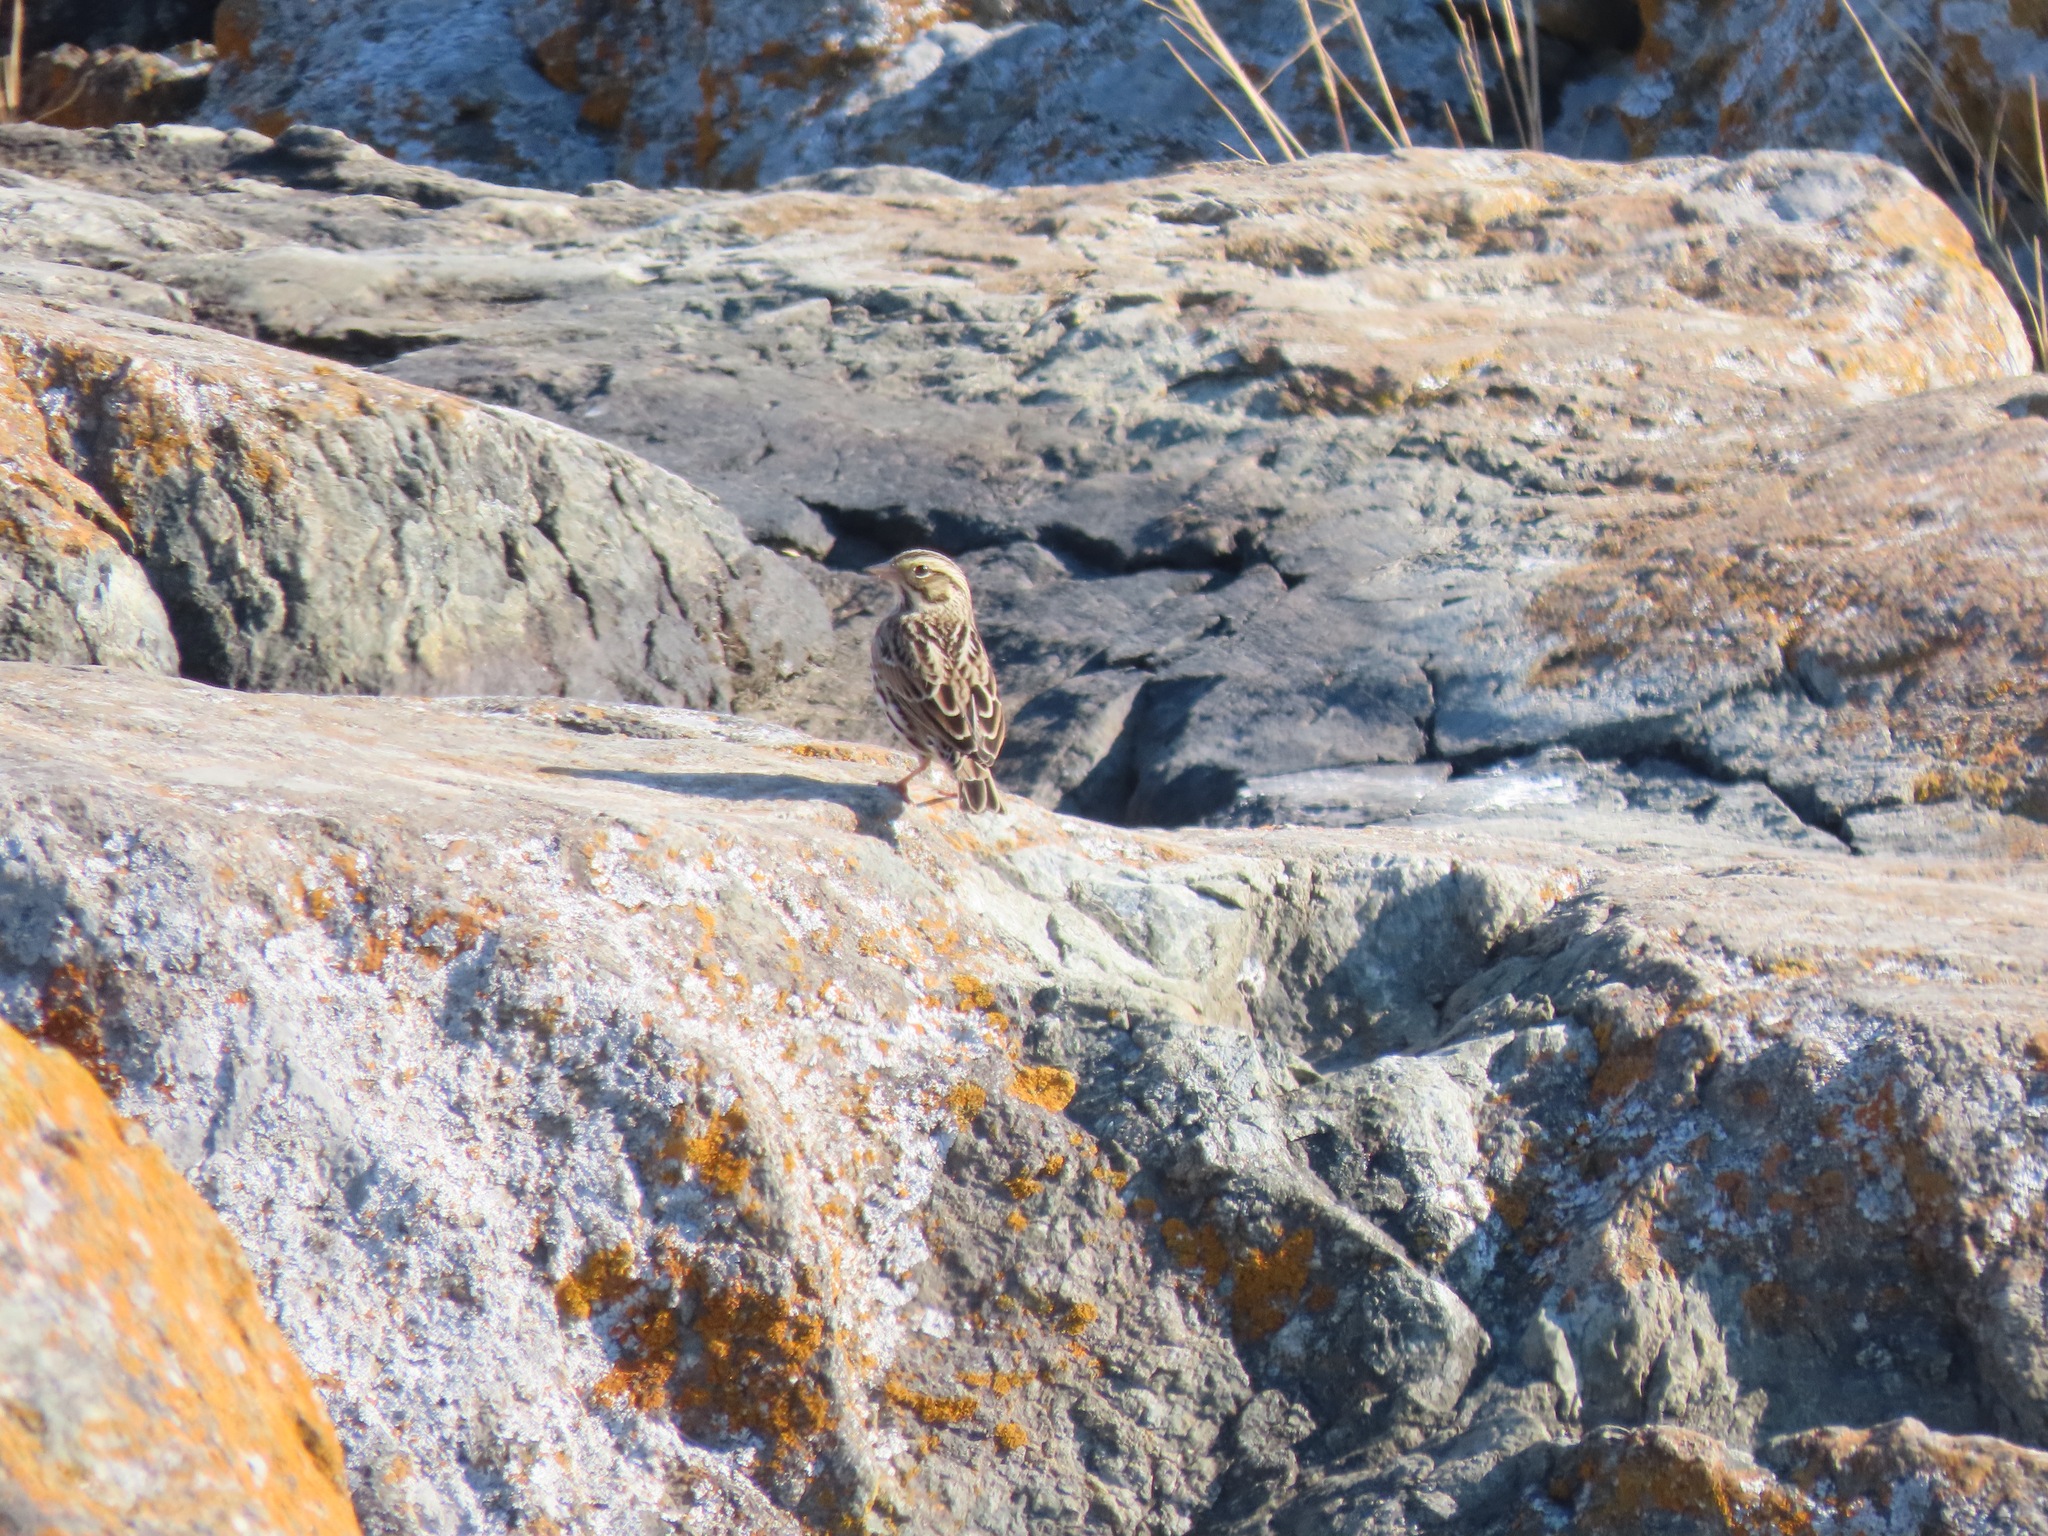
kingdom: Animalia
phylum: Chordata
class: Aves
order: Passeriformes
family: Passerellidae
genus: Passerculus
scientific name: Passerculus sandwichensis
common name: Savannah sparrow
